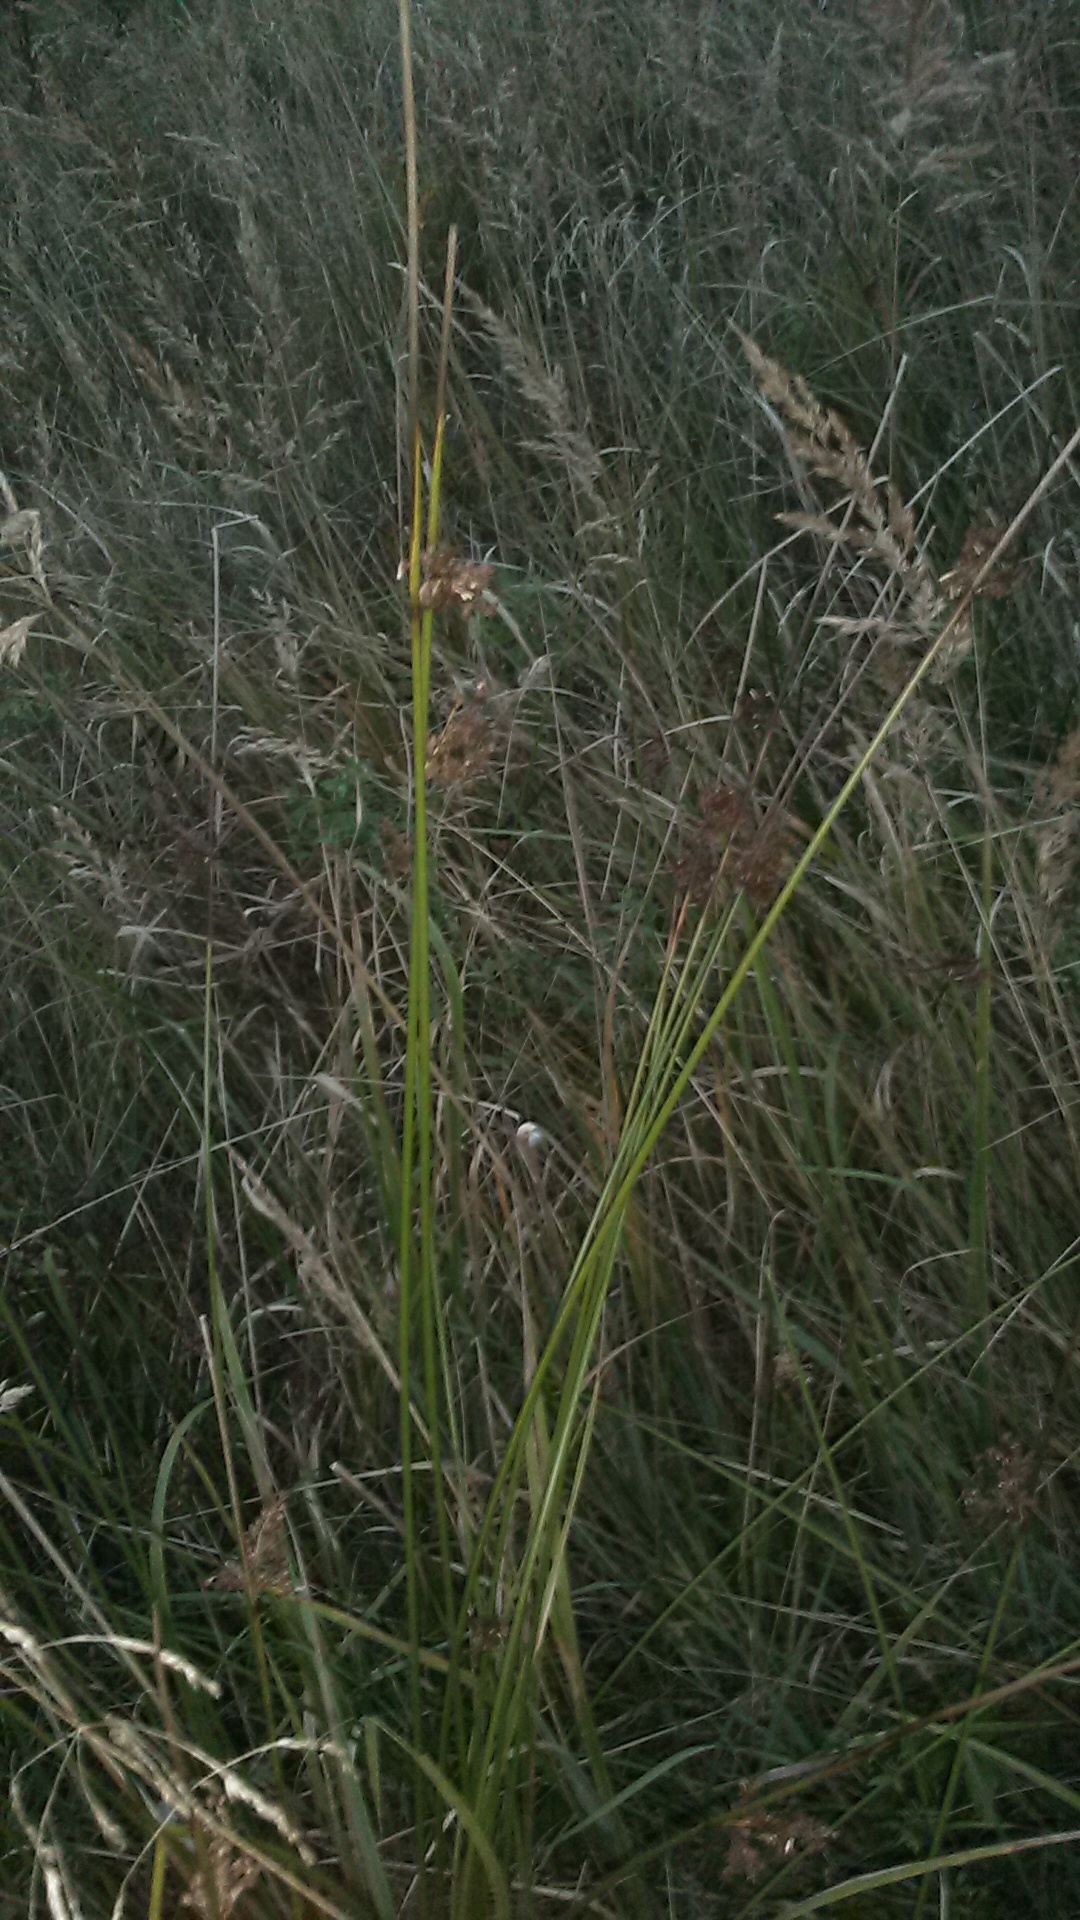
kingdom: Plantae
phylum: Tracheophyta
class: Liliopsida
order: Poales
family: Juncaceae
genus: Juncus
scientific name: Juncus effusus
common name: Soft rush
